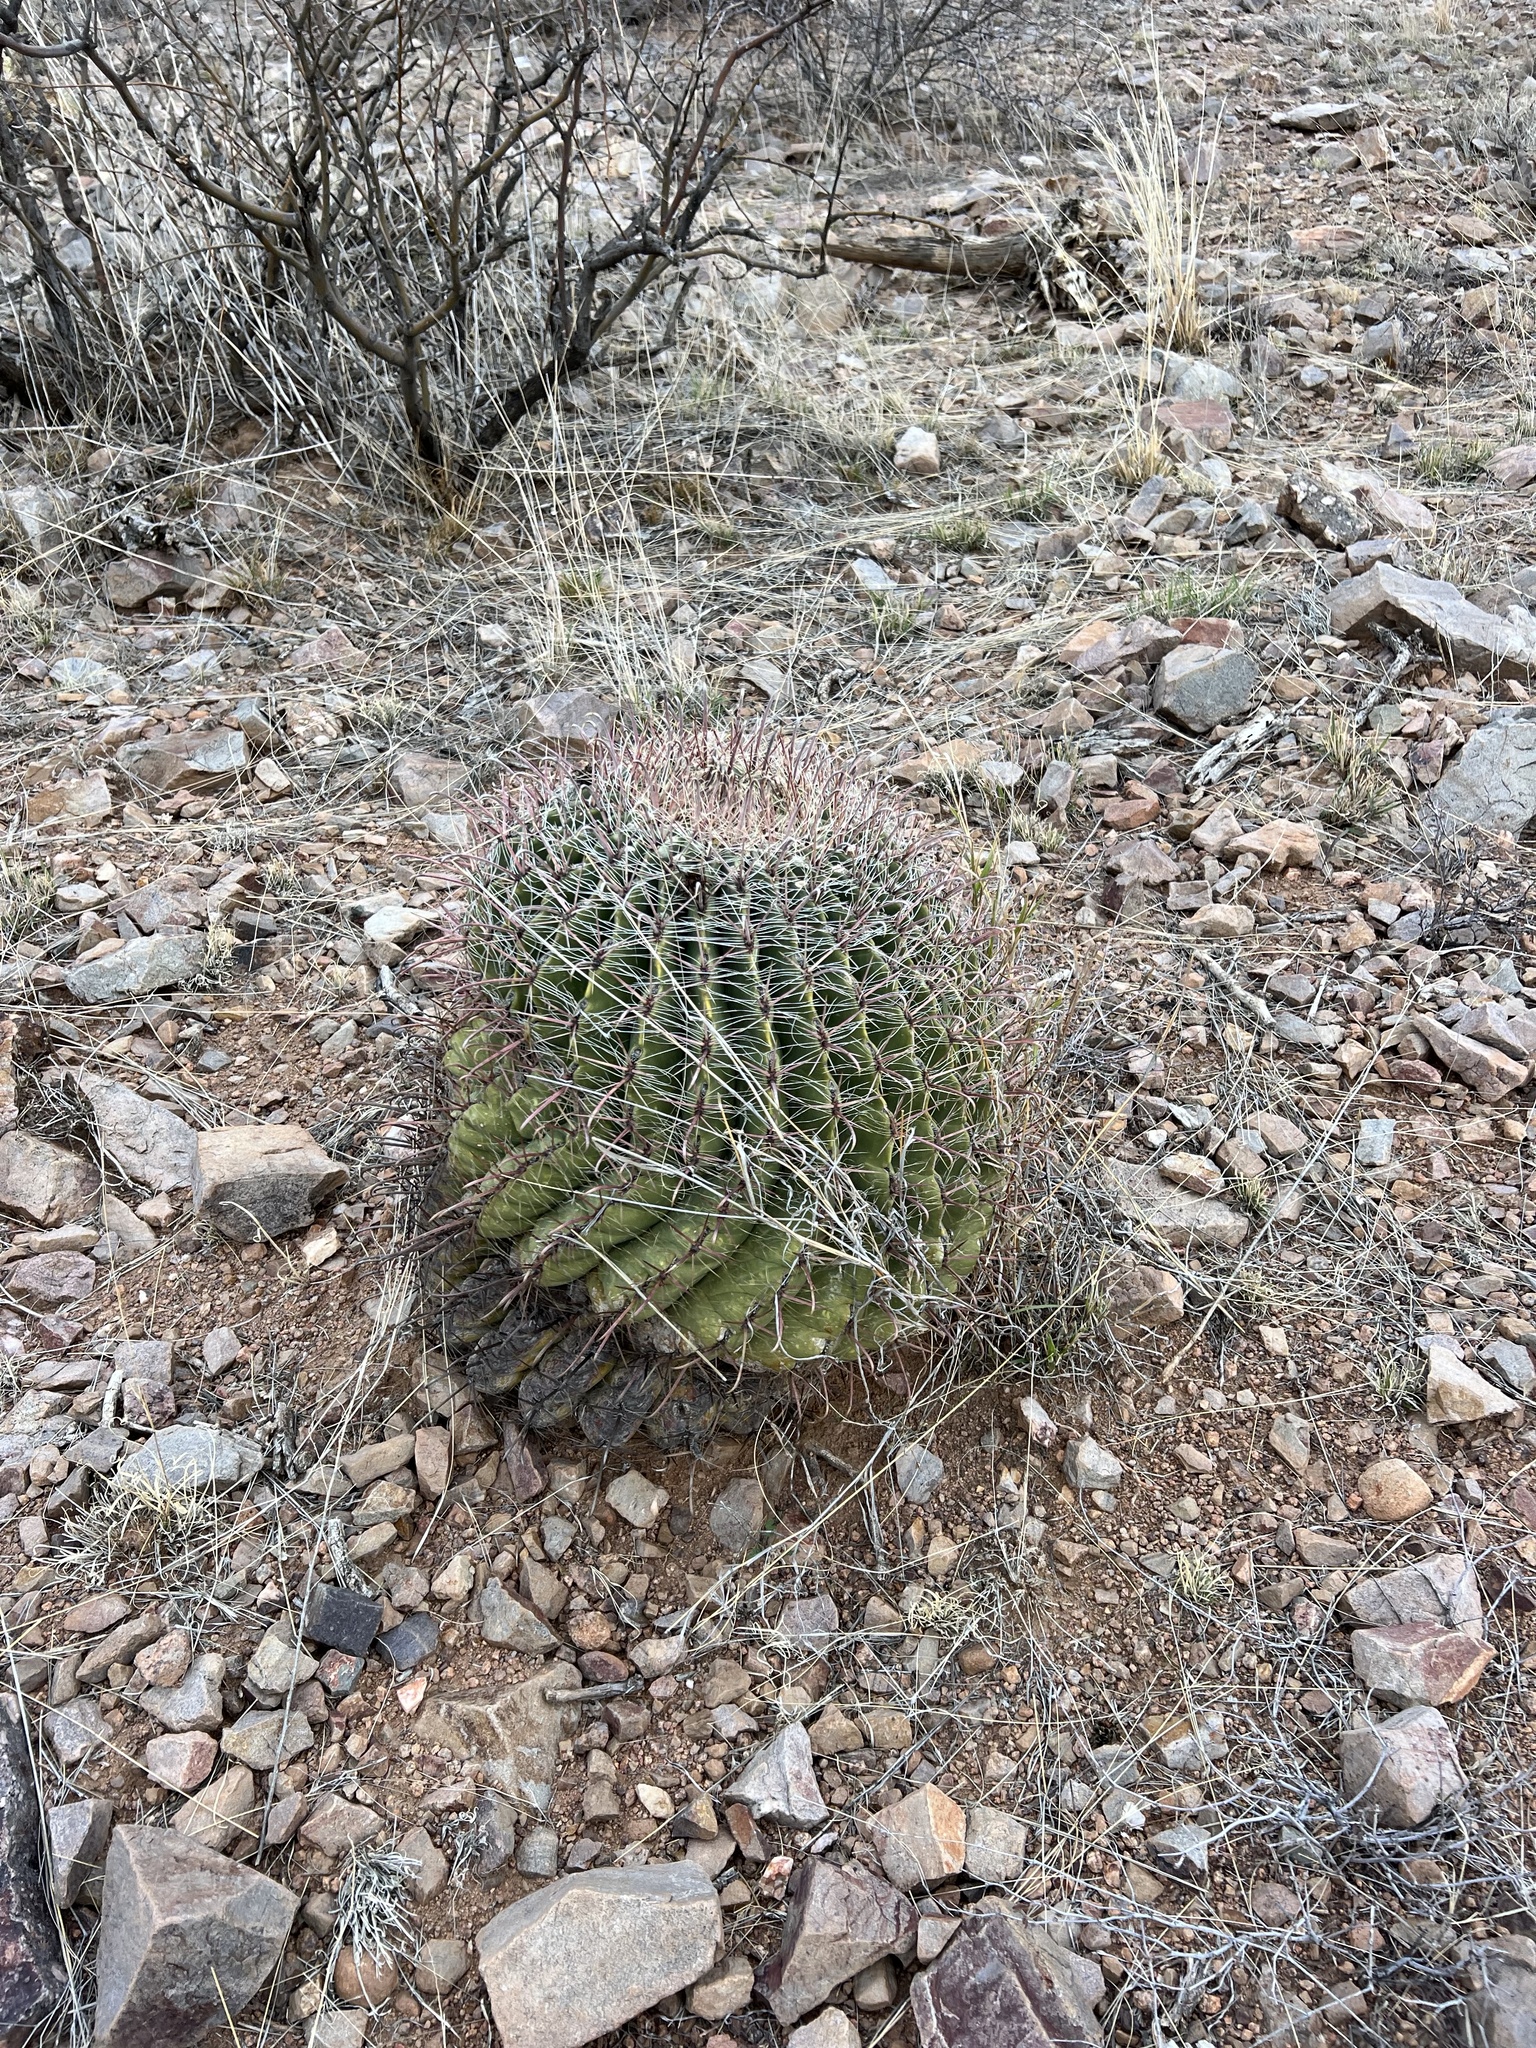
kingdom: Plantae
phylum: Tracheophyta
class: Magnoliopsida
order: Caryophyllales
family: Cactaceae
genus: Ferocactus
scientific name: Ferocactus wislizeni
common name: Candy barrel cactus
